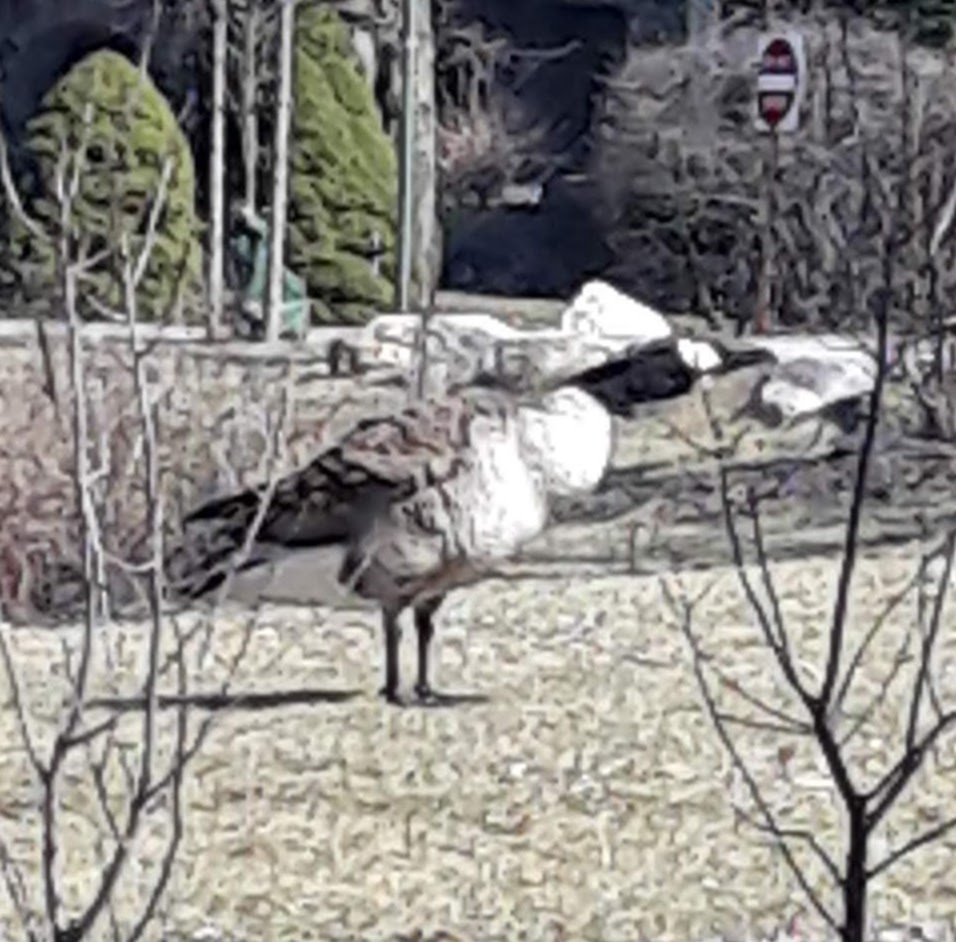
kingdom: Animalia
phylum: Chordata
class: Aves
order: Anseriformes
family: Anatidae
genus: Branta
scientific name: Branta canadensis
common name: Canada goose
